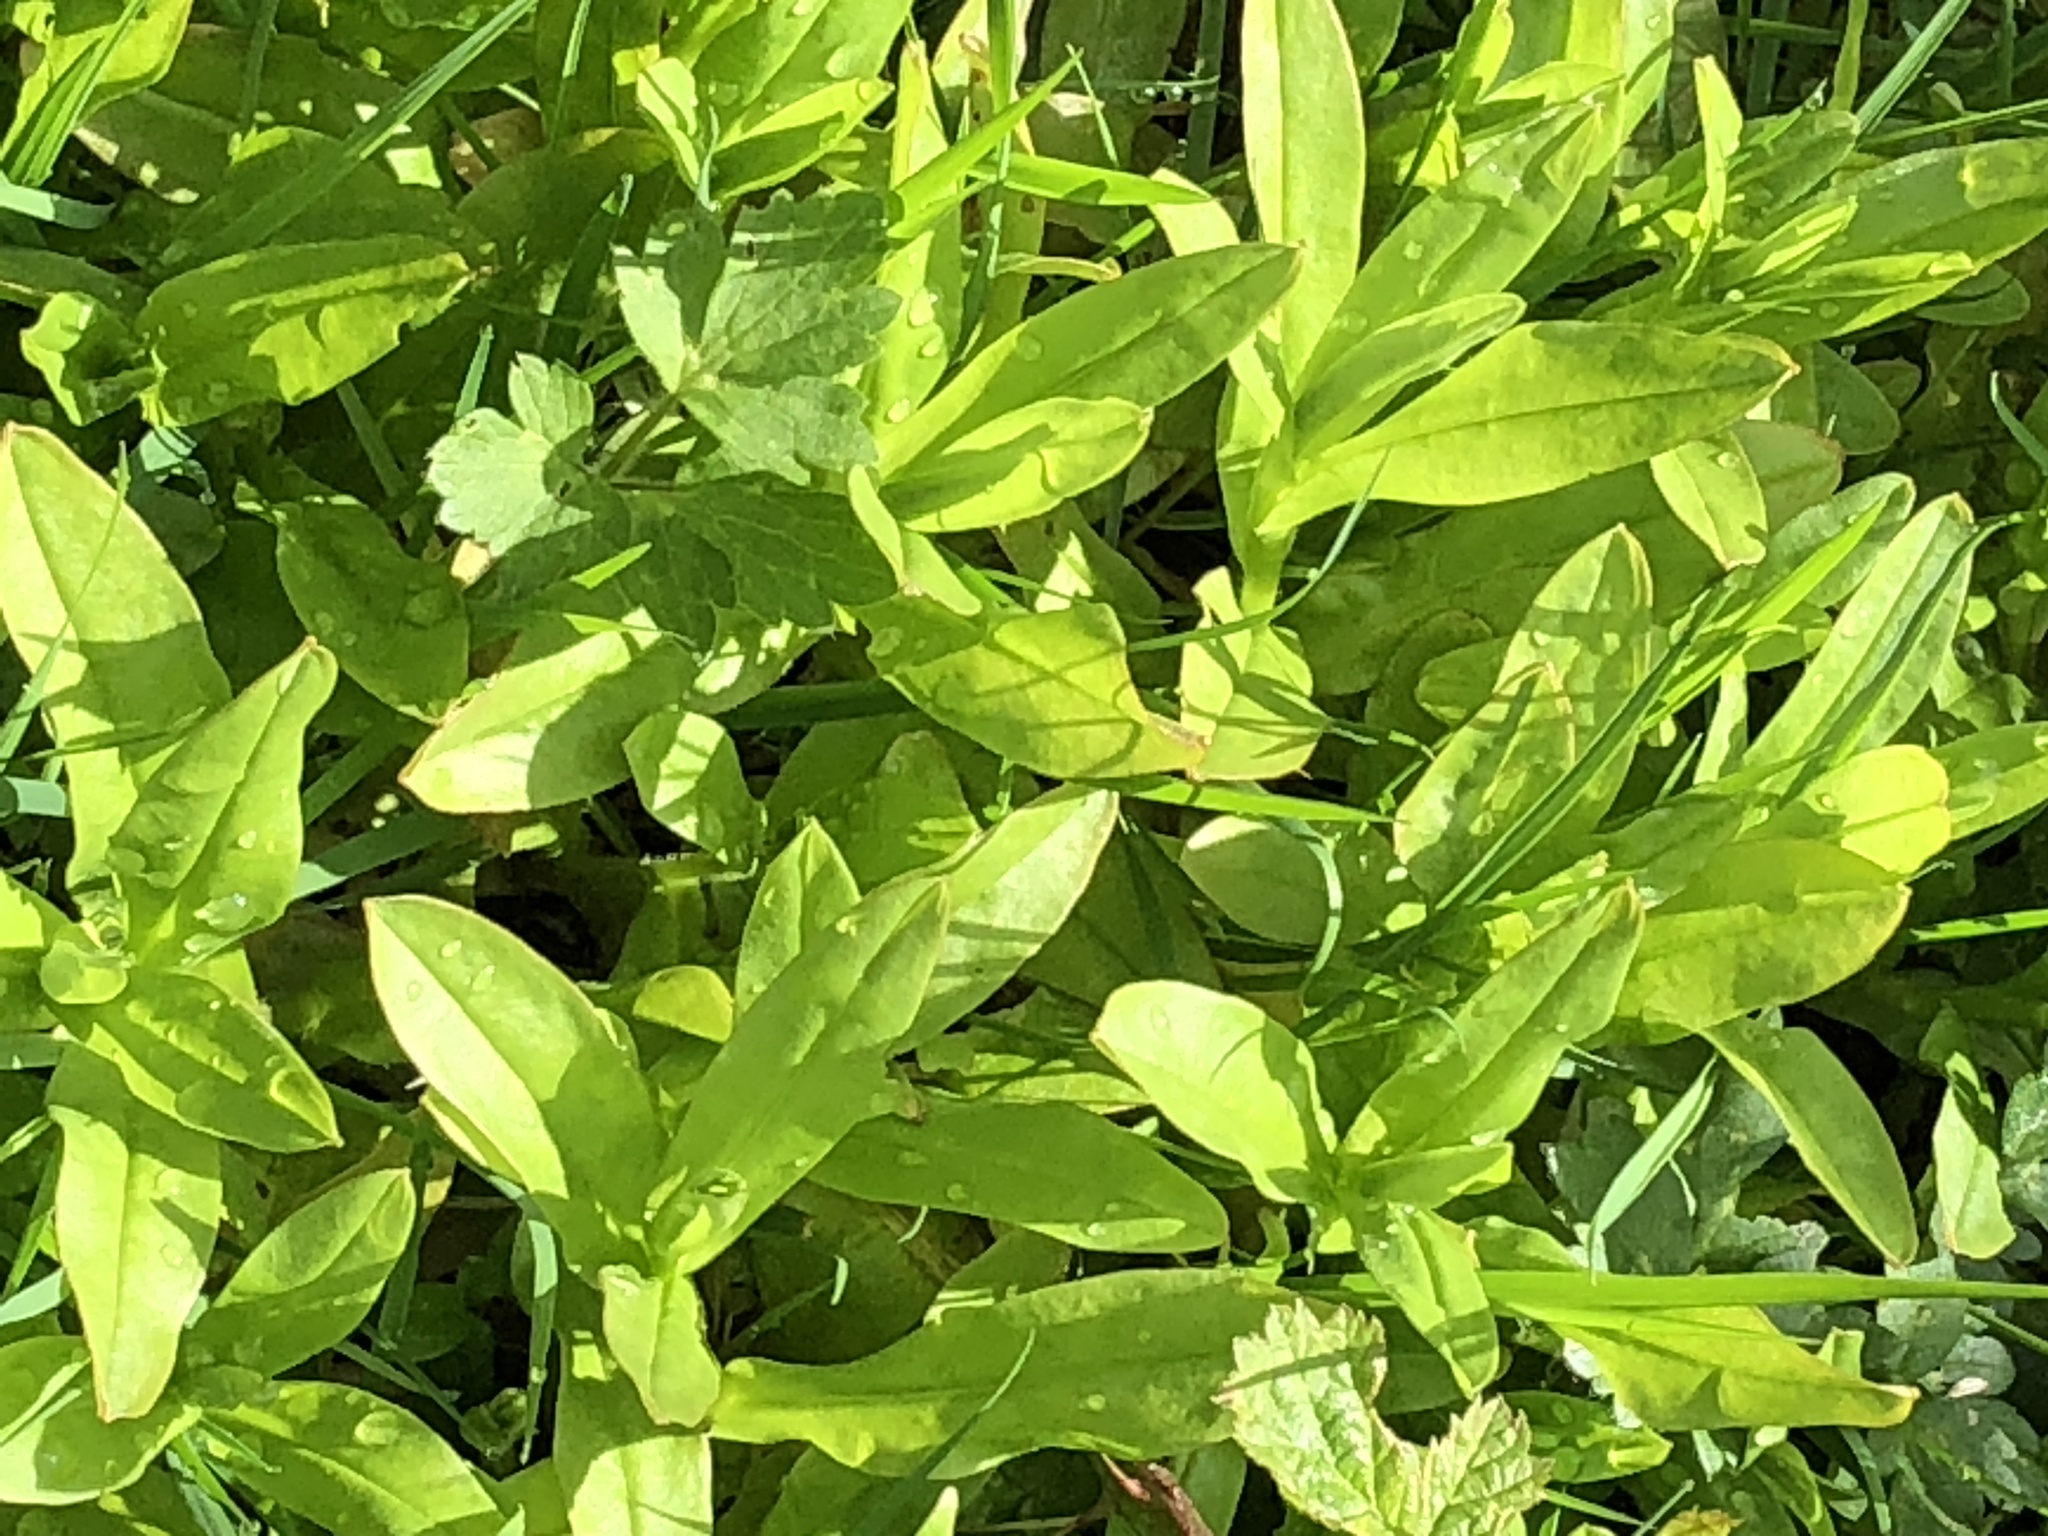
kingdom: Plantae
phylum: Tracheophyta
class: Magnoliopsida
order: Boraginales
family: Boraginaceae
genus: Myosotis
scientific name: Myosotis scorpioides
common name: Water forget-me-not
